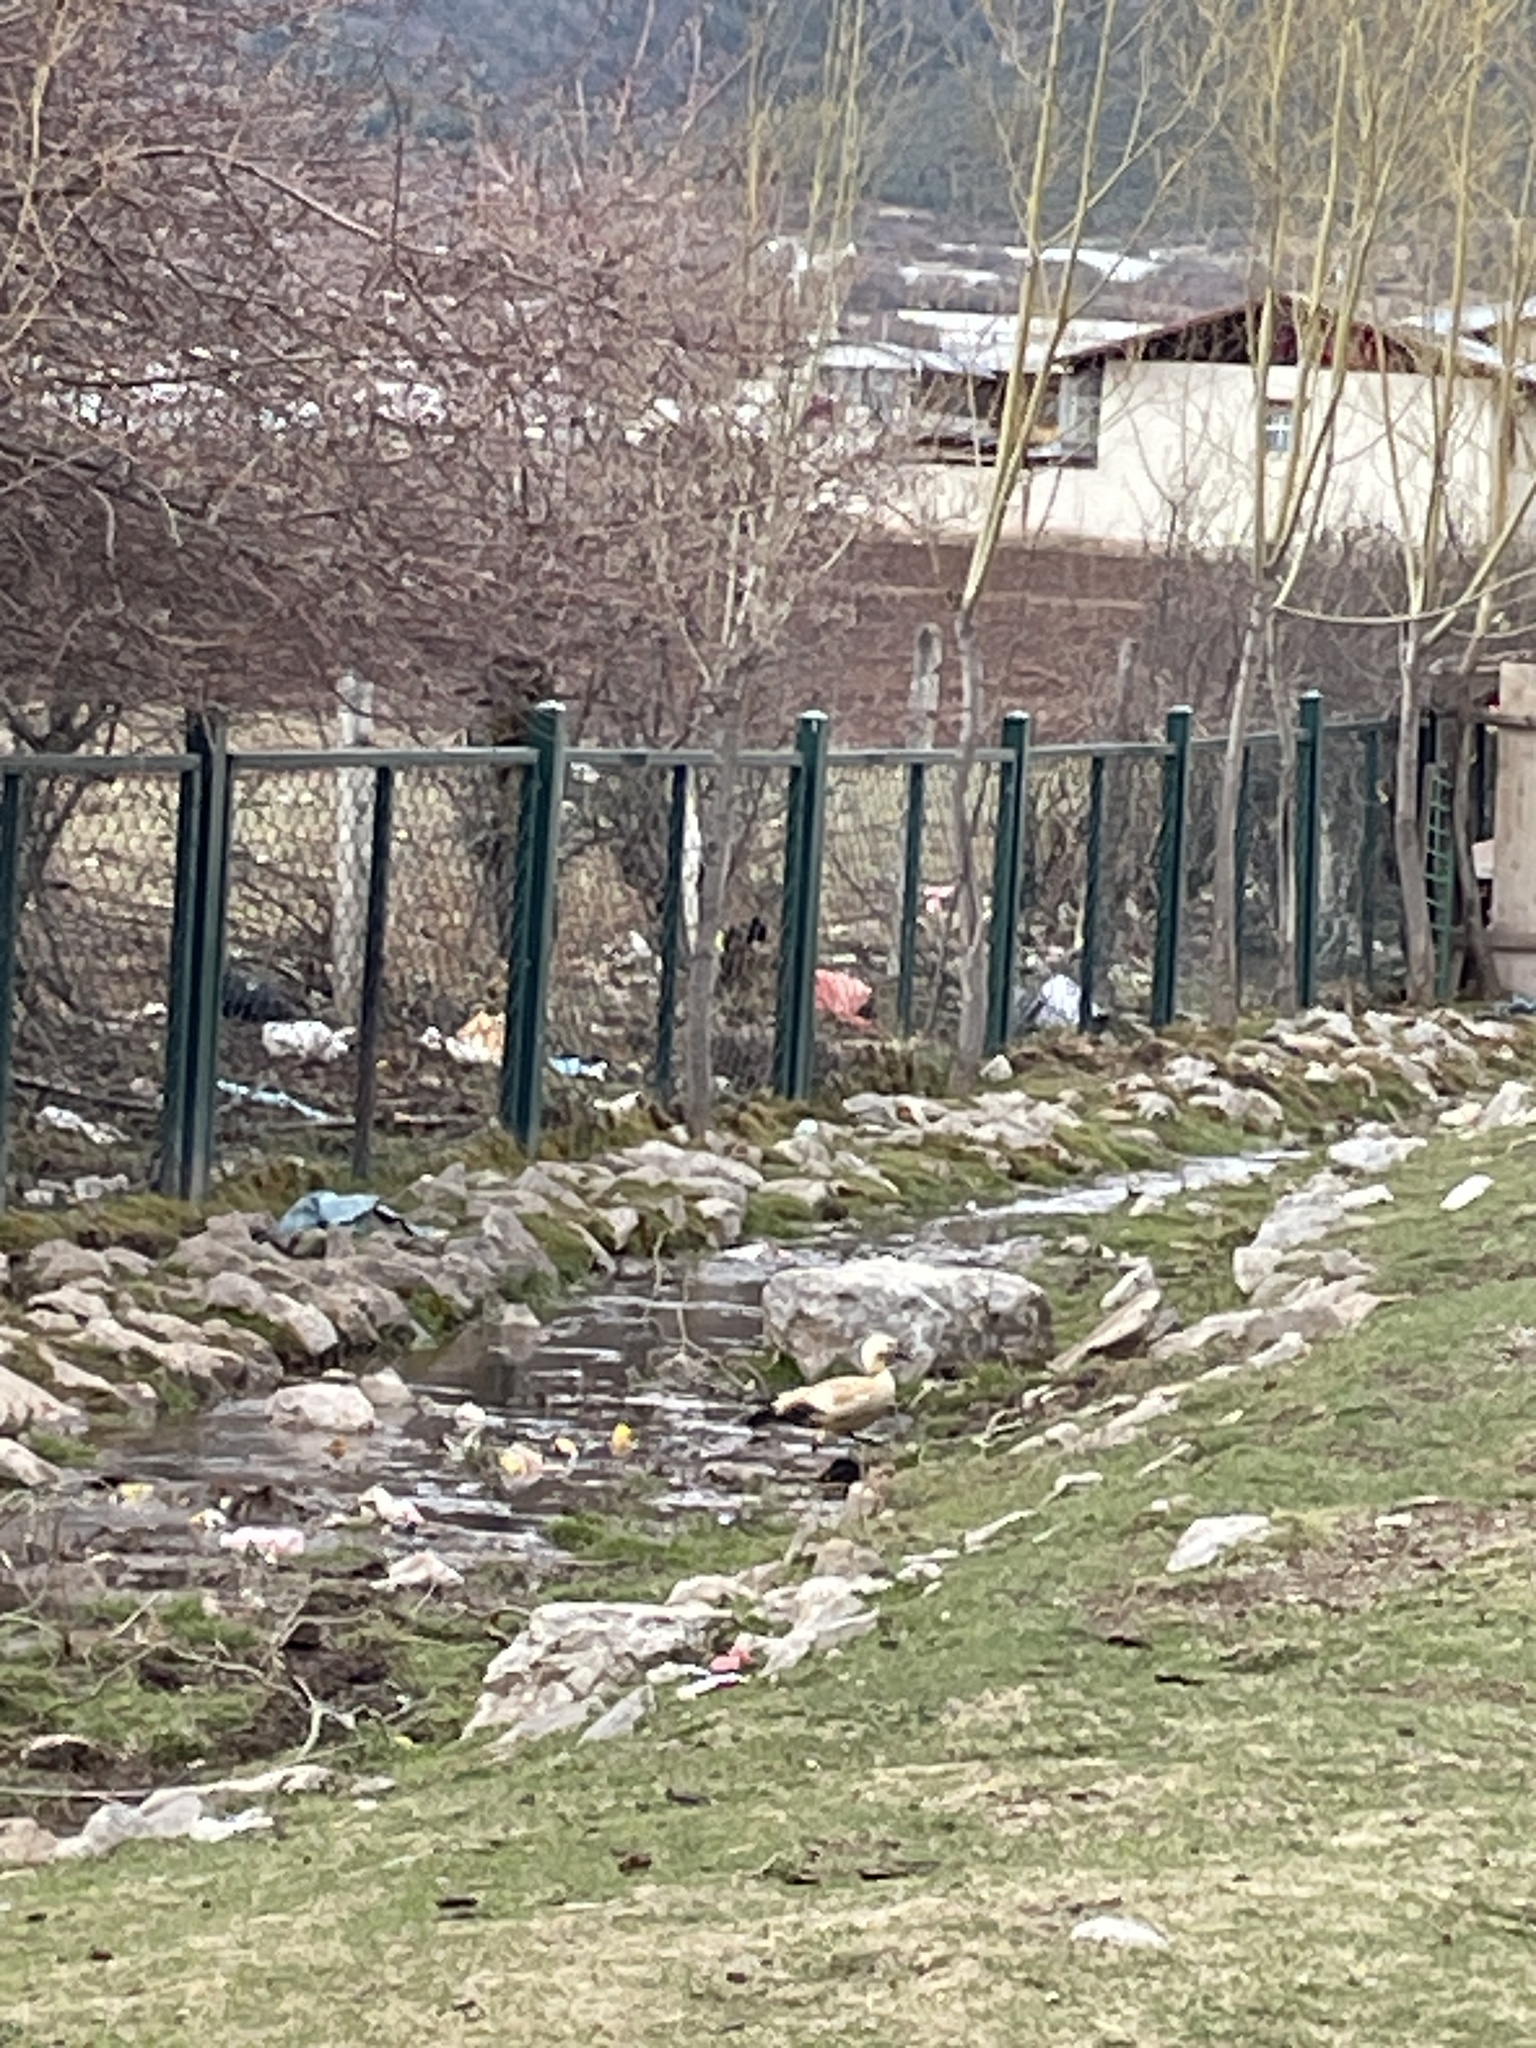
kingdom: Animalia
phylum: Chordata
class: Aves
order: Anseriformes
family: Anatidae
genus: Tadorna
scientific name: Tadorna ferruginea
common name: Ruddy shelduck
